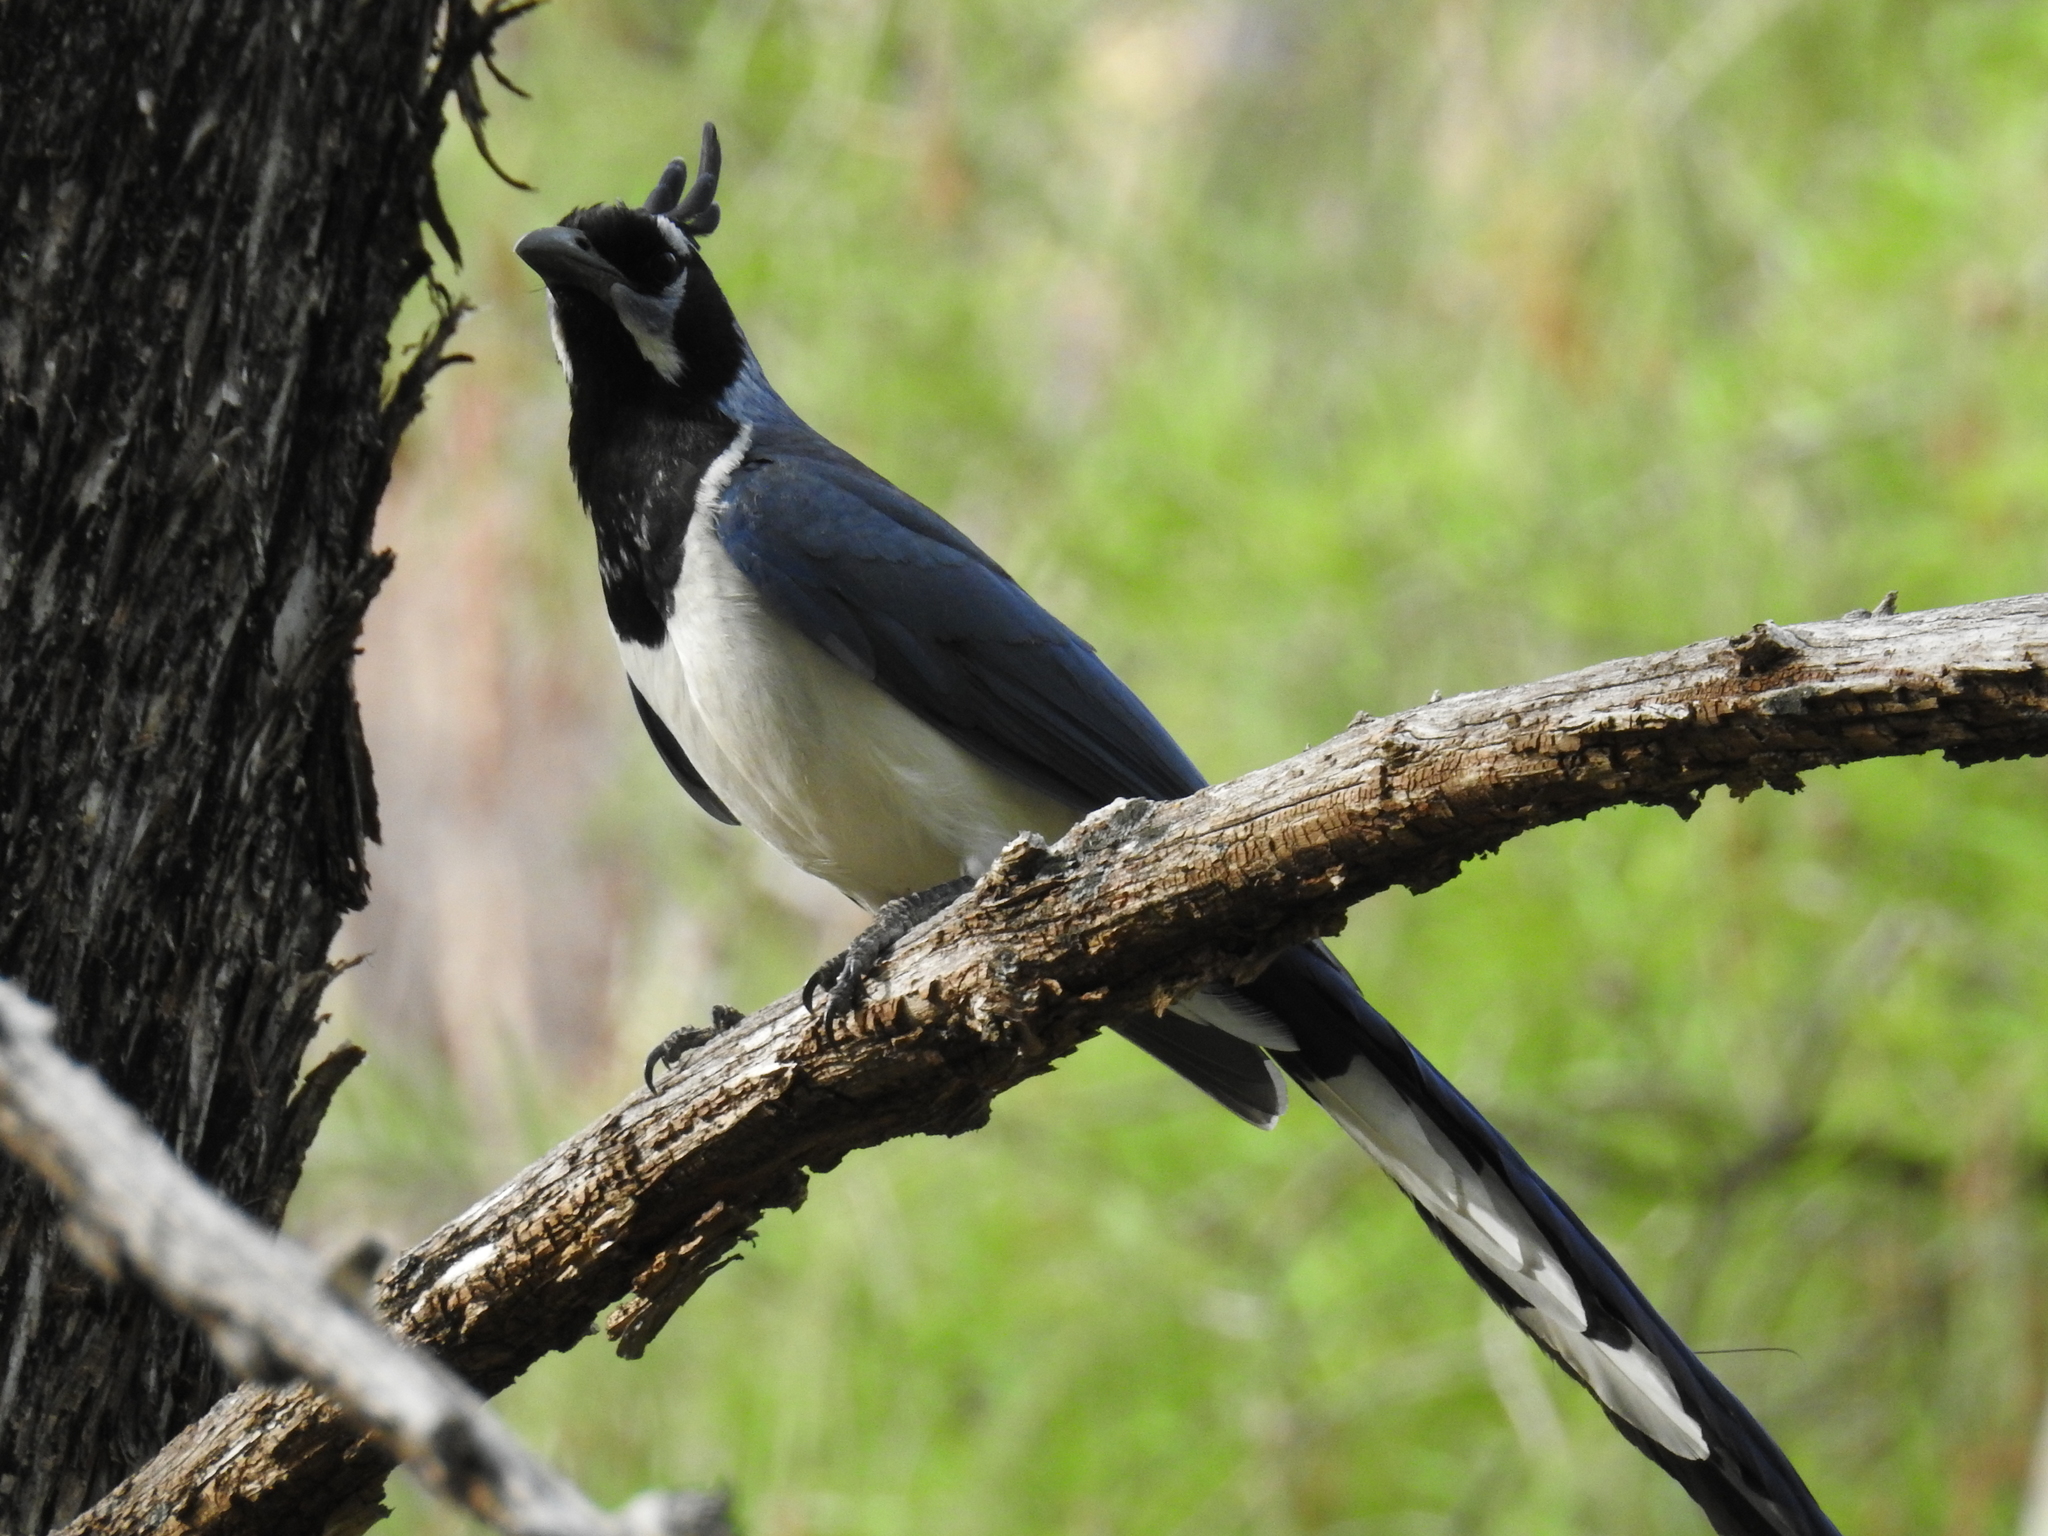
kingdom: Animalia
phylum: Chordata
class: Aves
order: Passeriformes
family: Corvidae
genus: Calocitta
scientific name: Calocitta colliei
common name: Black-throated magpie-jay
